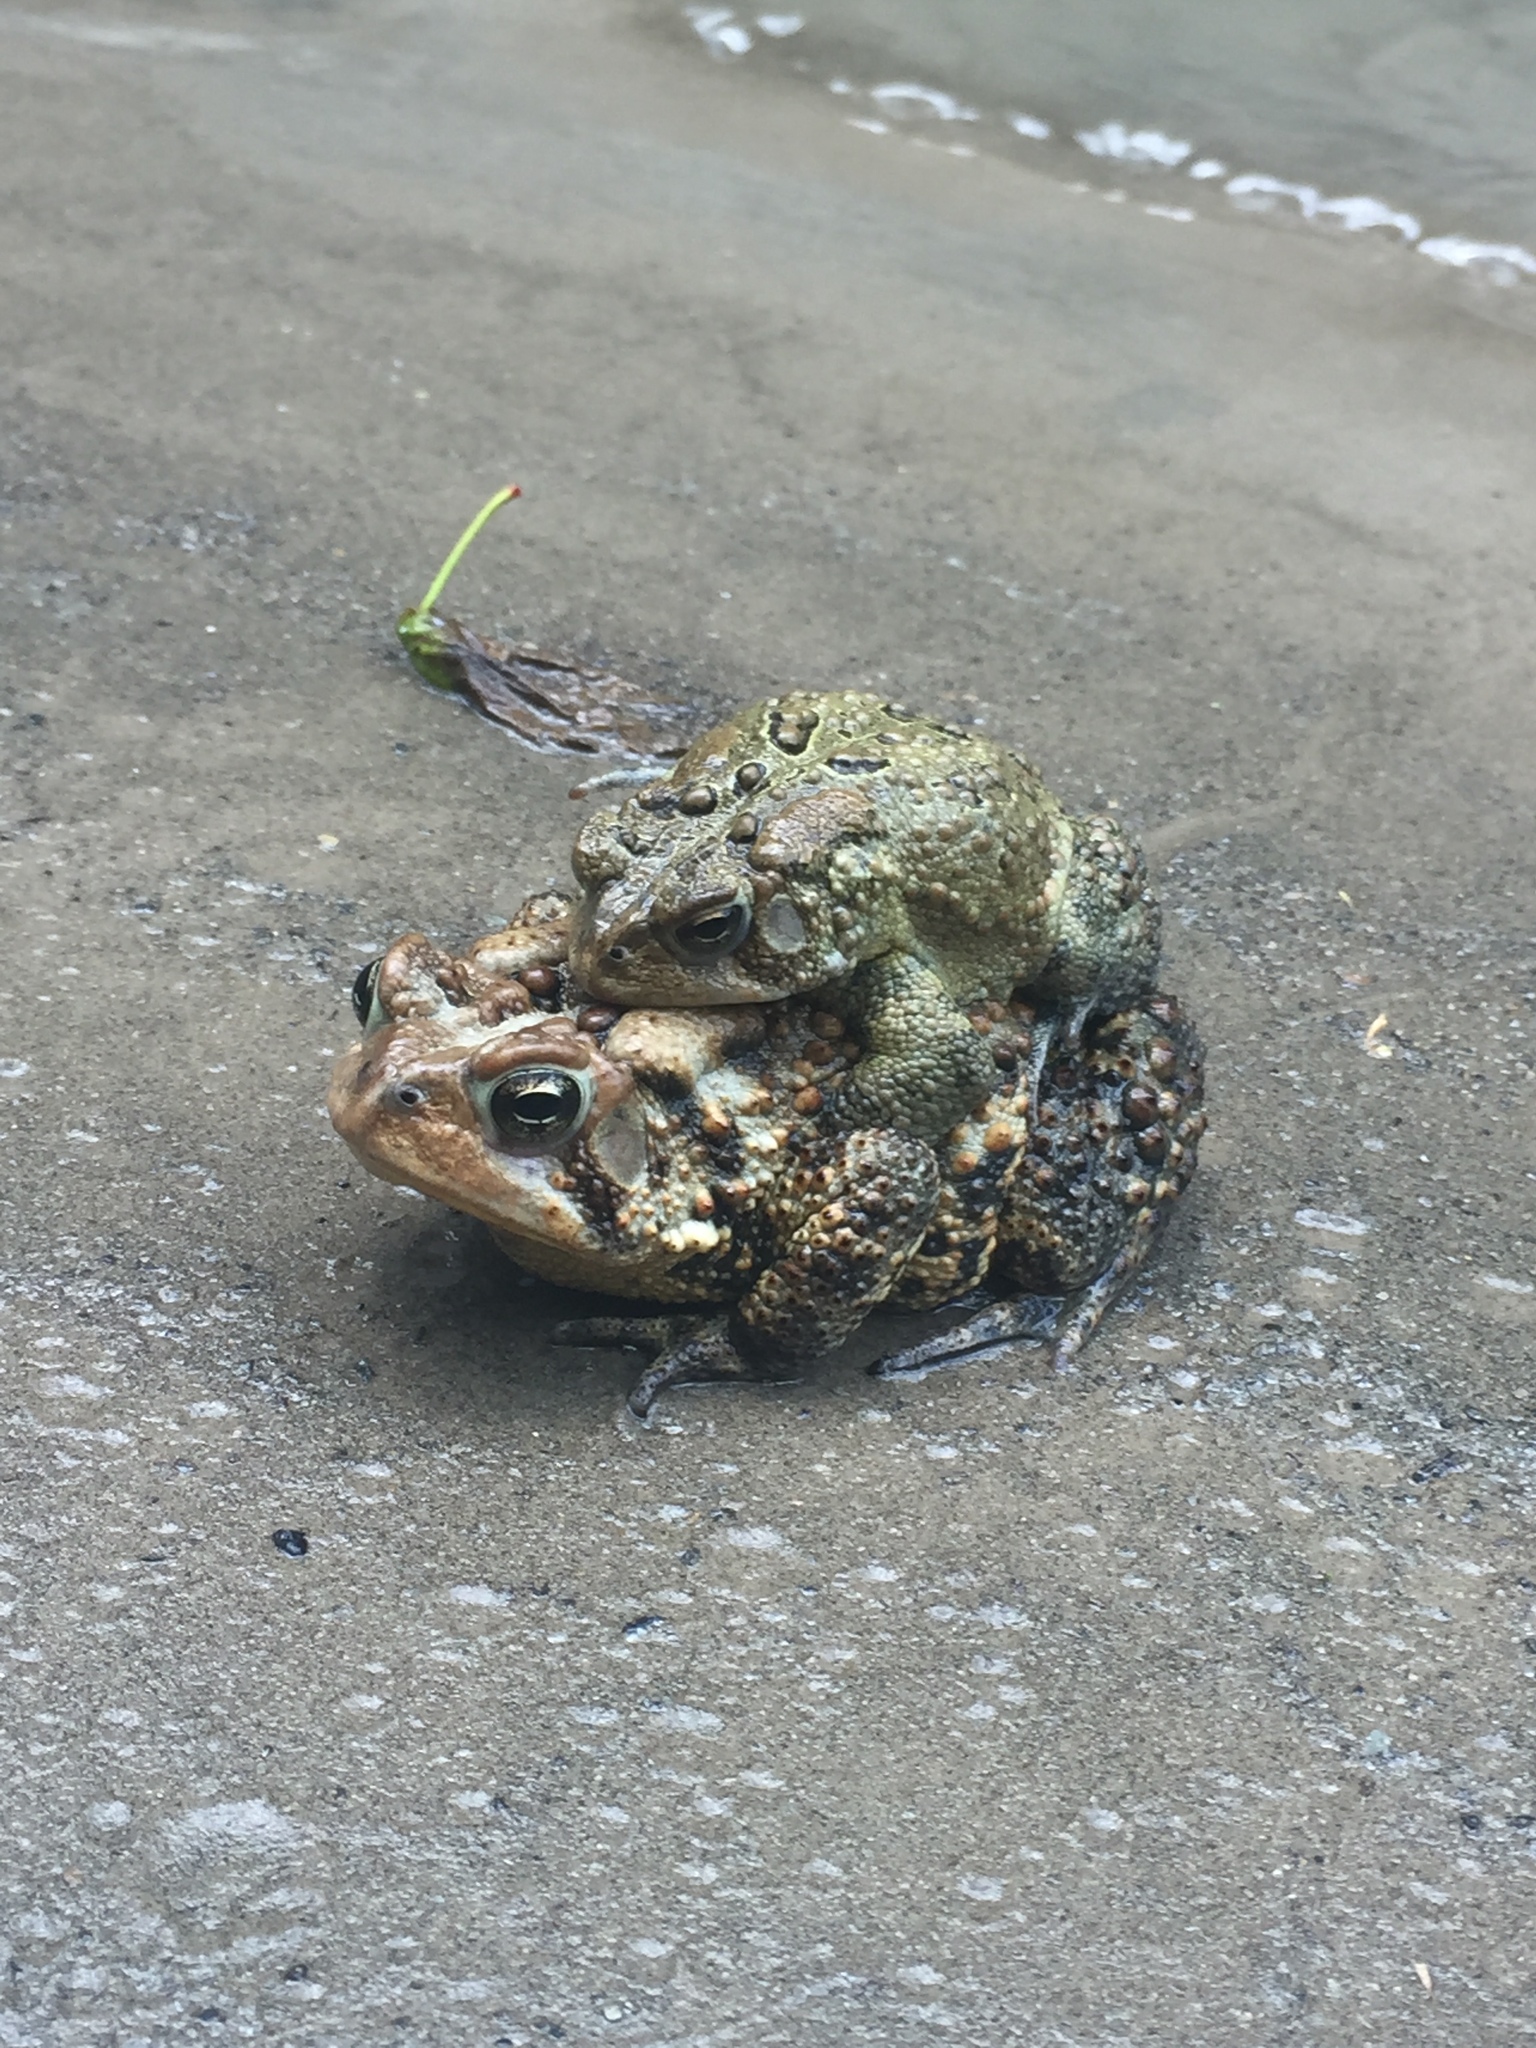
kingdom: Animalia
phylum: Chordata
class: Amphibia
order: Anura
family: Bufonidae
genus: Anaxyrus
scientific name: Anaxyrus americanus
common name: American toad
